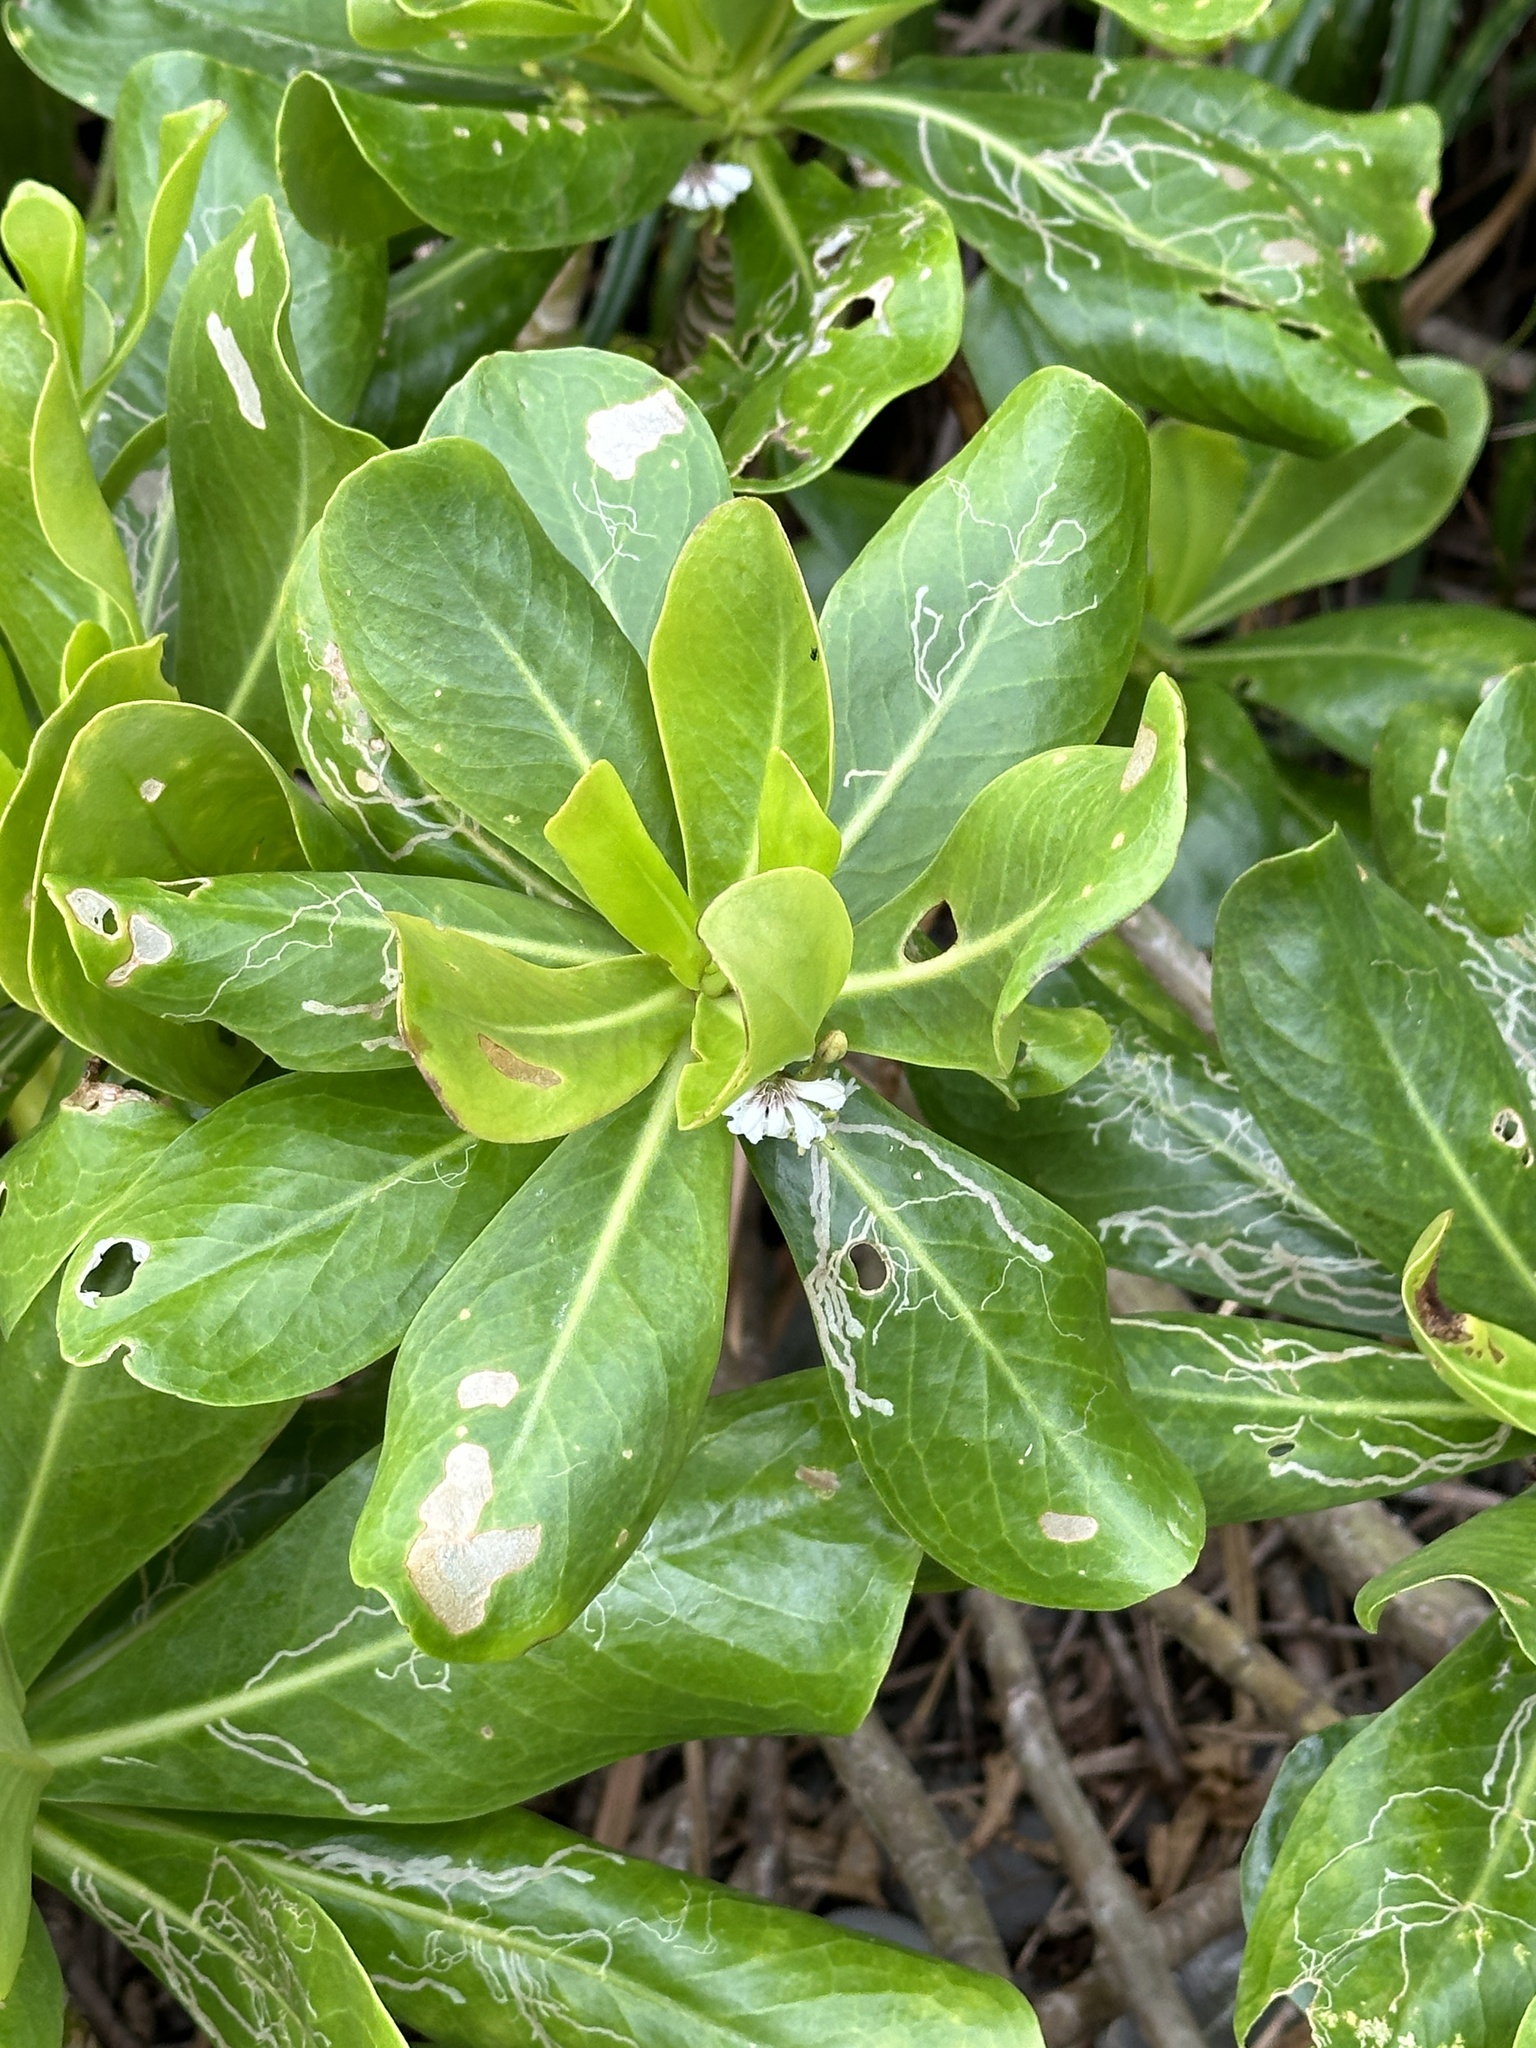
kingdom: Plantae
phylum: Tracheophyta
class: Magnoliopsida
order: Asterales
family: Goodeniaceae
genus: Scaevola
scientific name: Scaevola taccada
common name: Sea lettucetree
